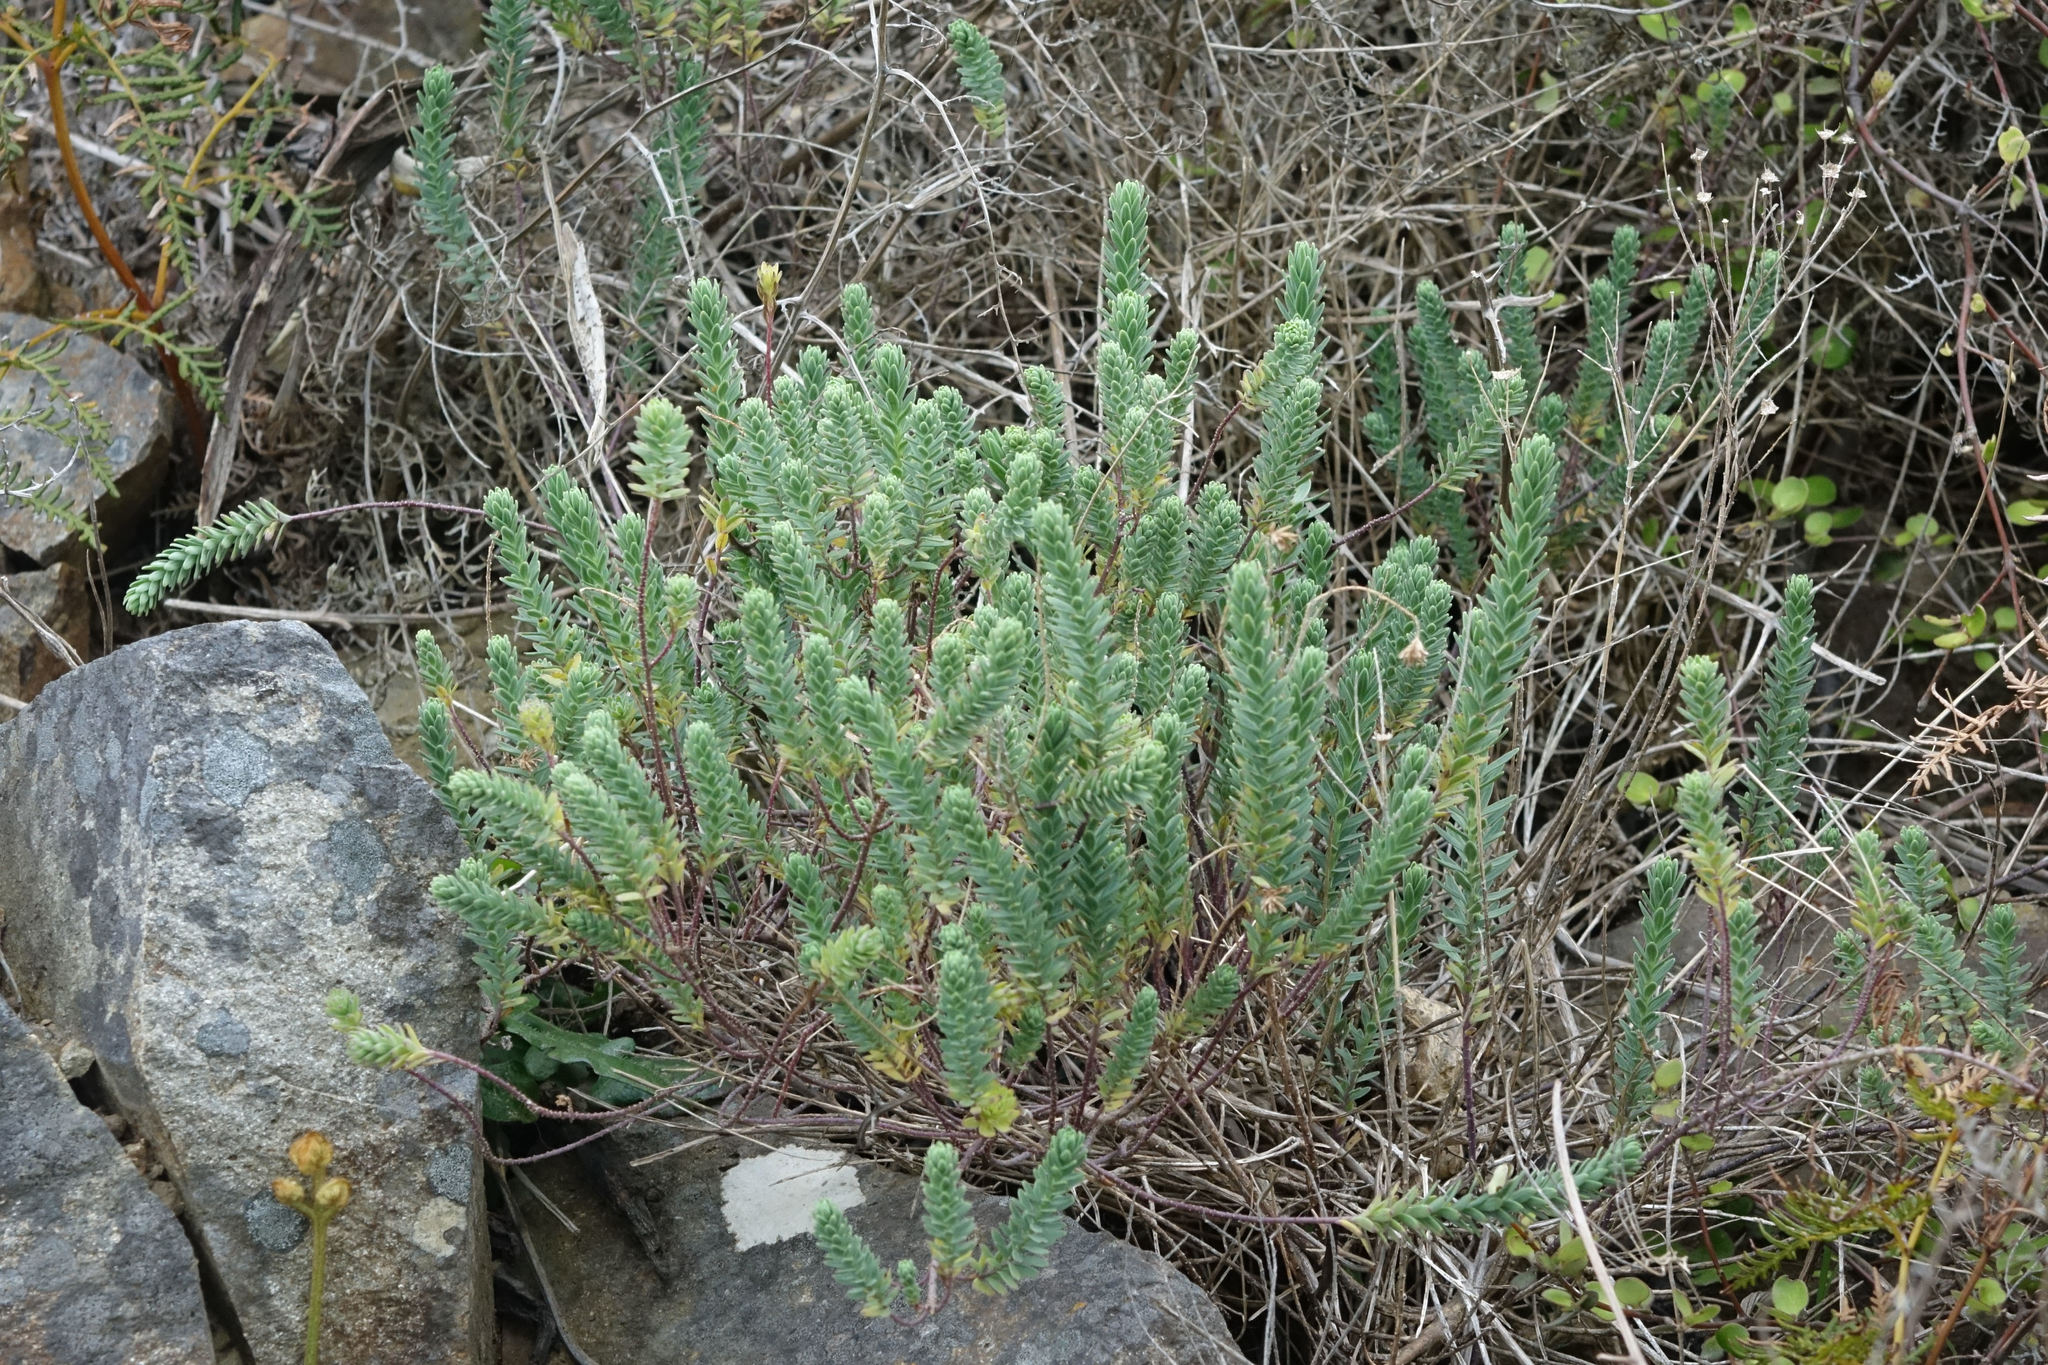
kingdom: Plantae
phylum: Tracheophyta
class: Magnoliopsida
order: Malpighiales
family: Linaceae
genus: Linum
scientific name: Linum monogynum
